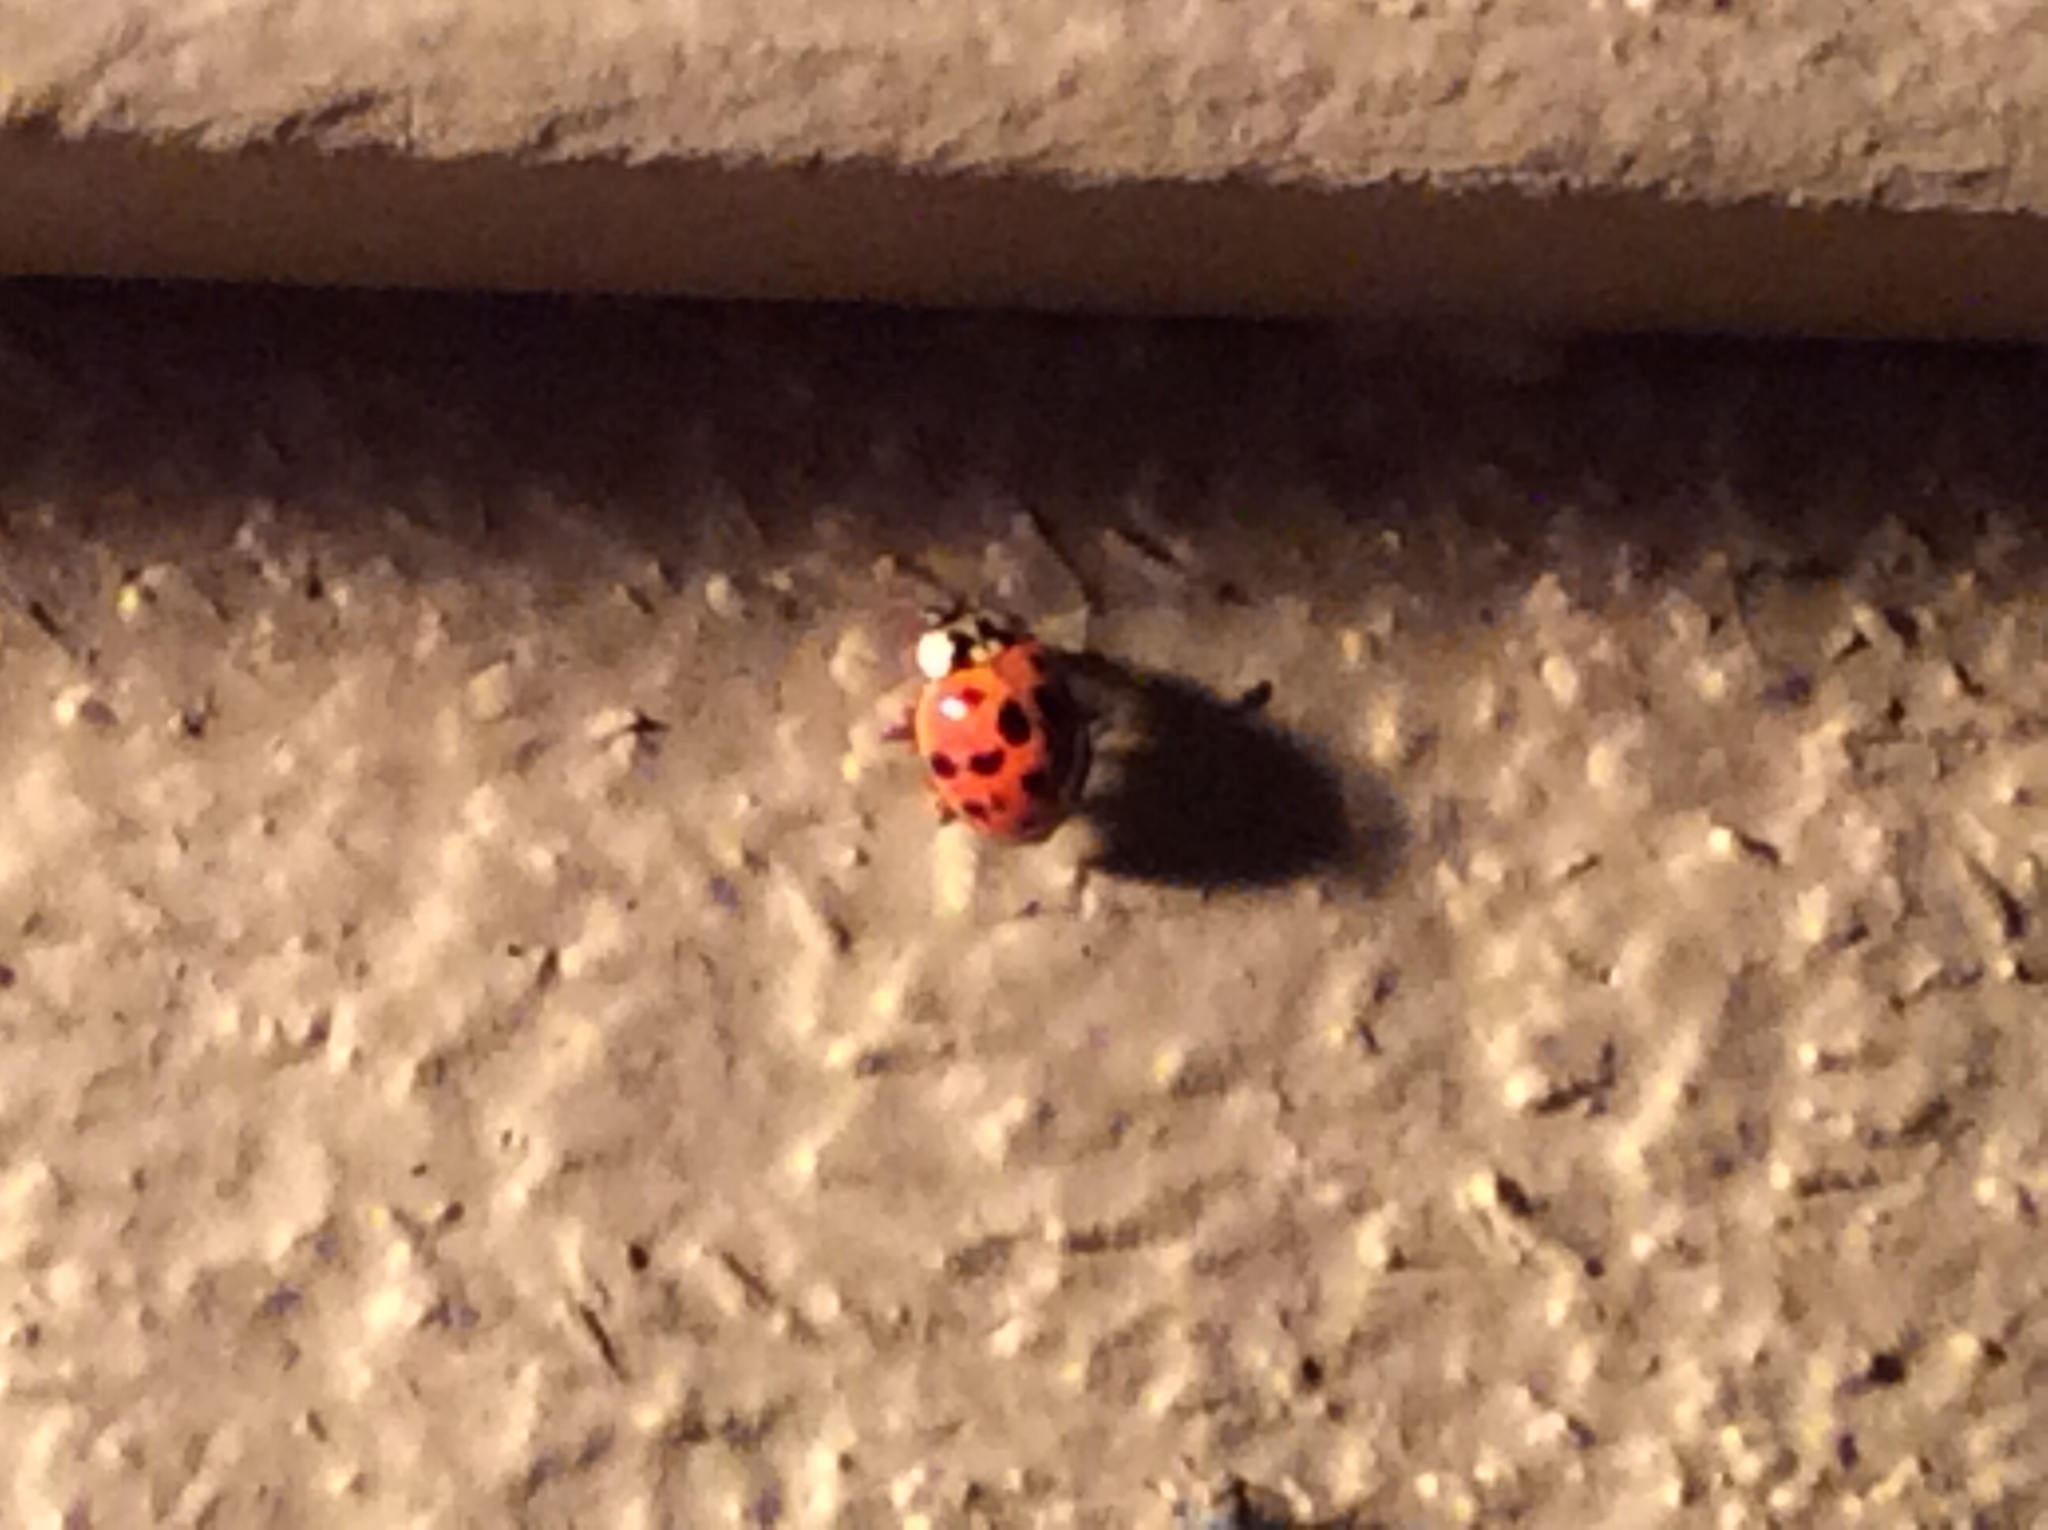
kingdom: Animalia
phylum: Arthropoda
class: Insecta
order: Coleoptera
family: Coccinellidae
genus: Harmonia
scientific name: Harmonia axyridis
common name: Harlequin ladybird
